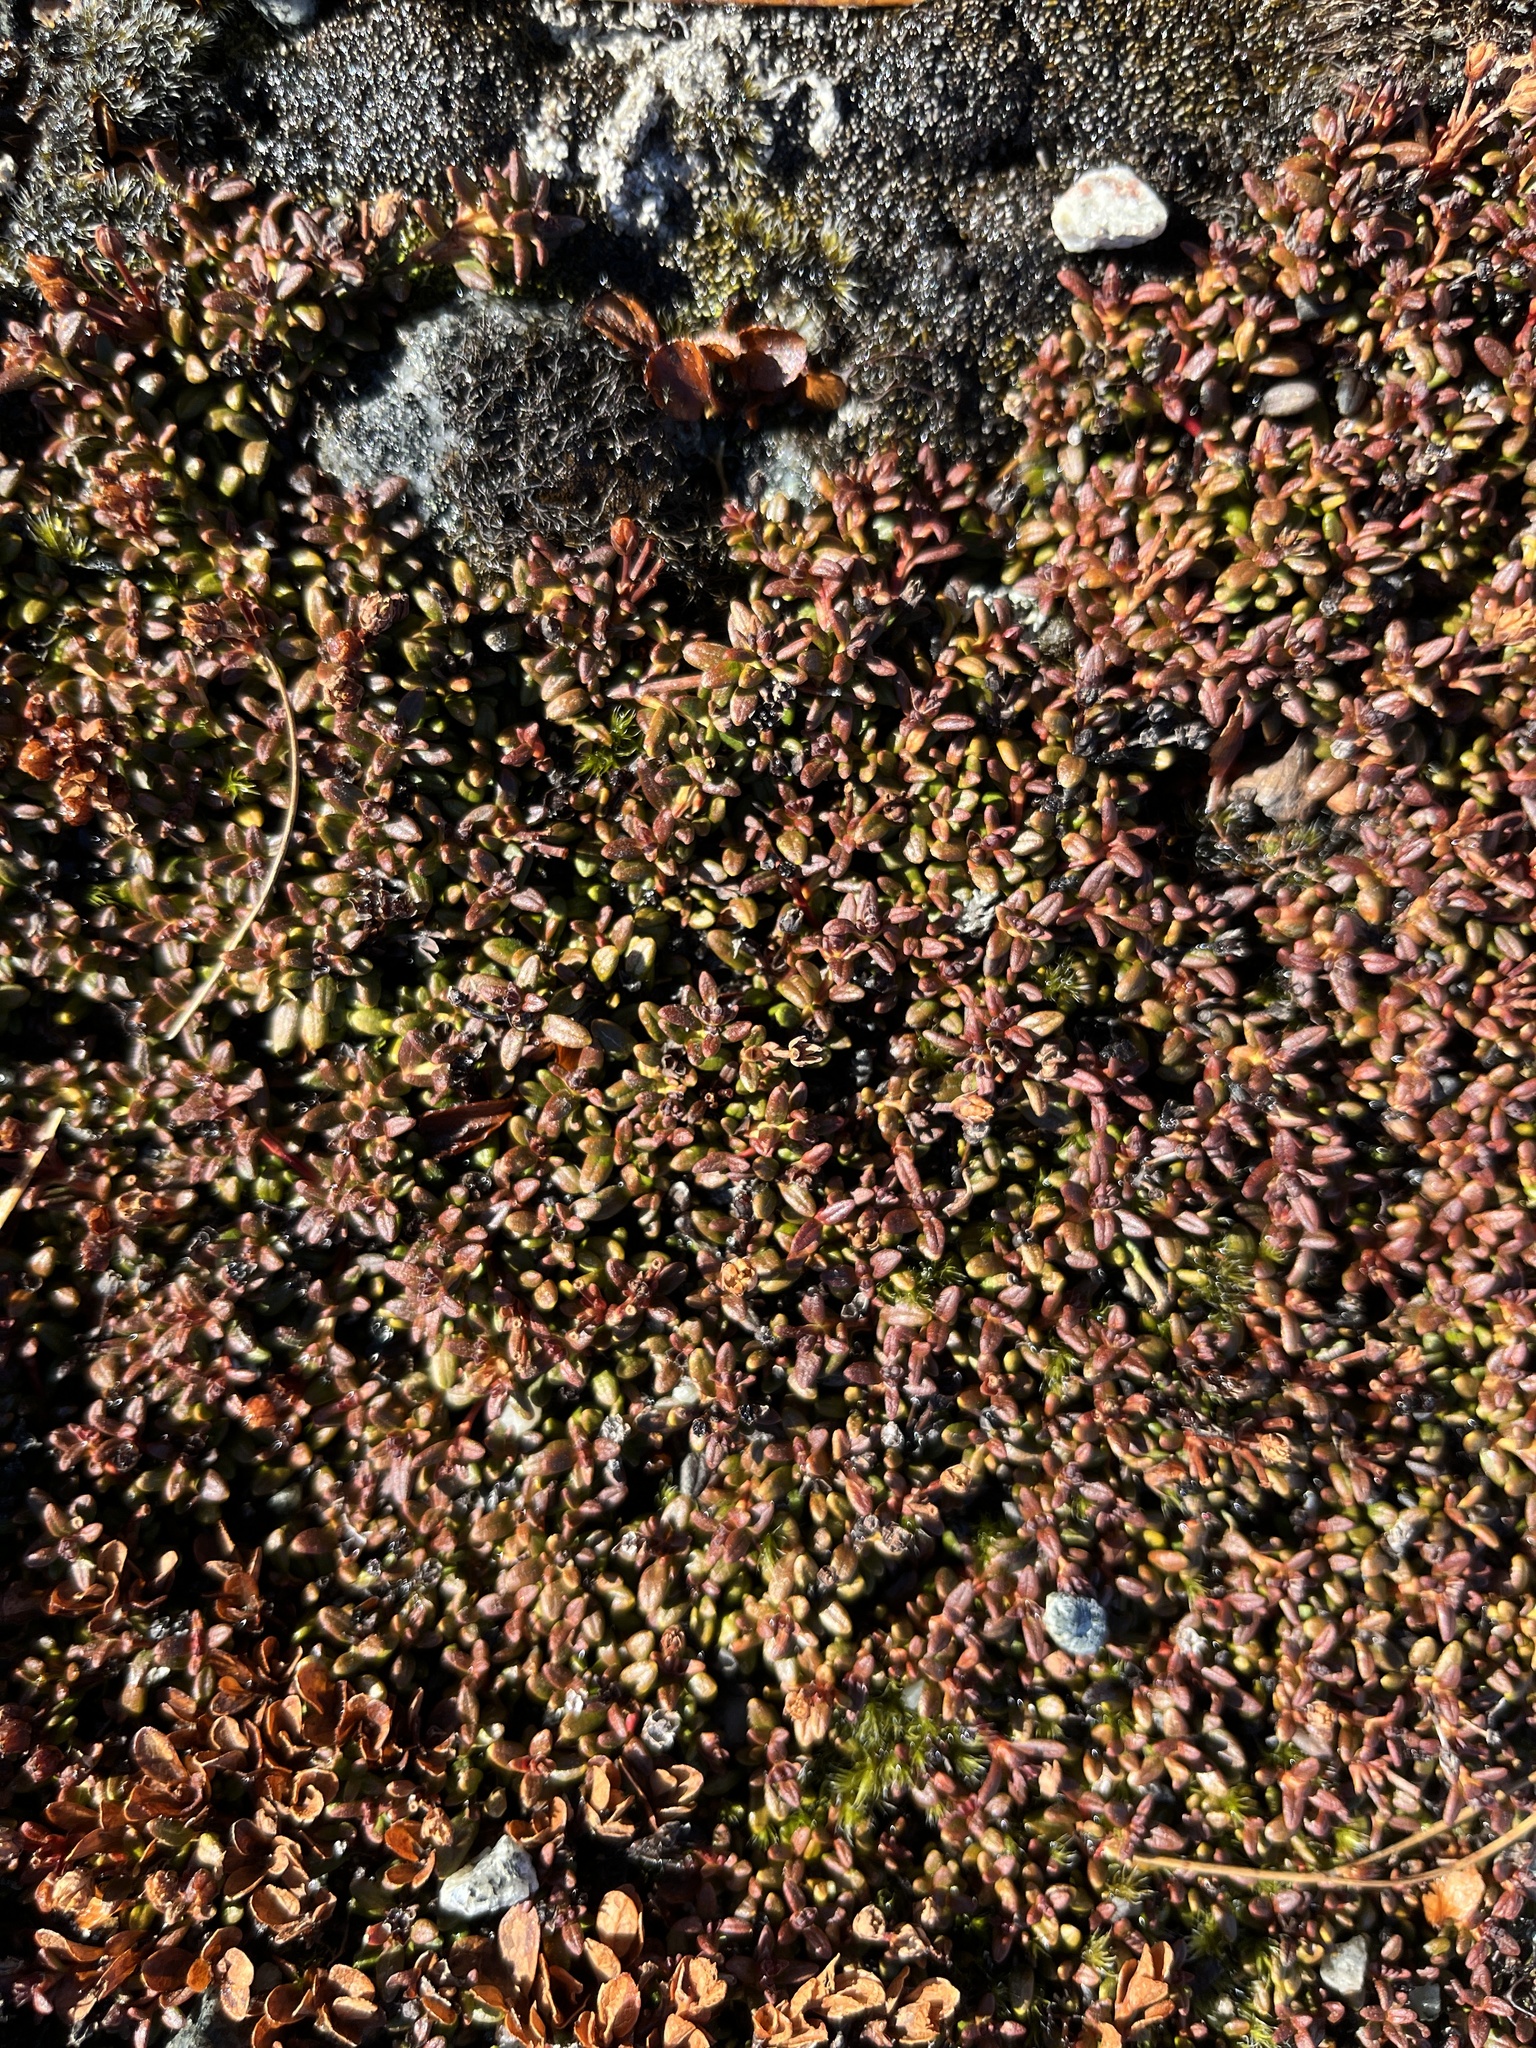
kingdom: Plantae
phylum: Tracheophyta
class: Magnoliopsida
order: Ericales
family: Ericaceae
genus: Kalmia
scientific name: Kalmia procumbens
